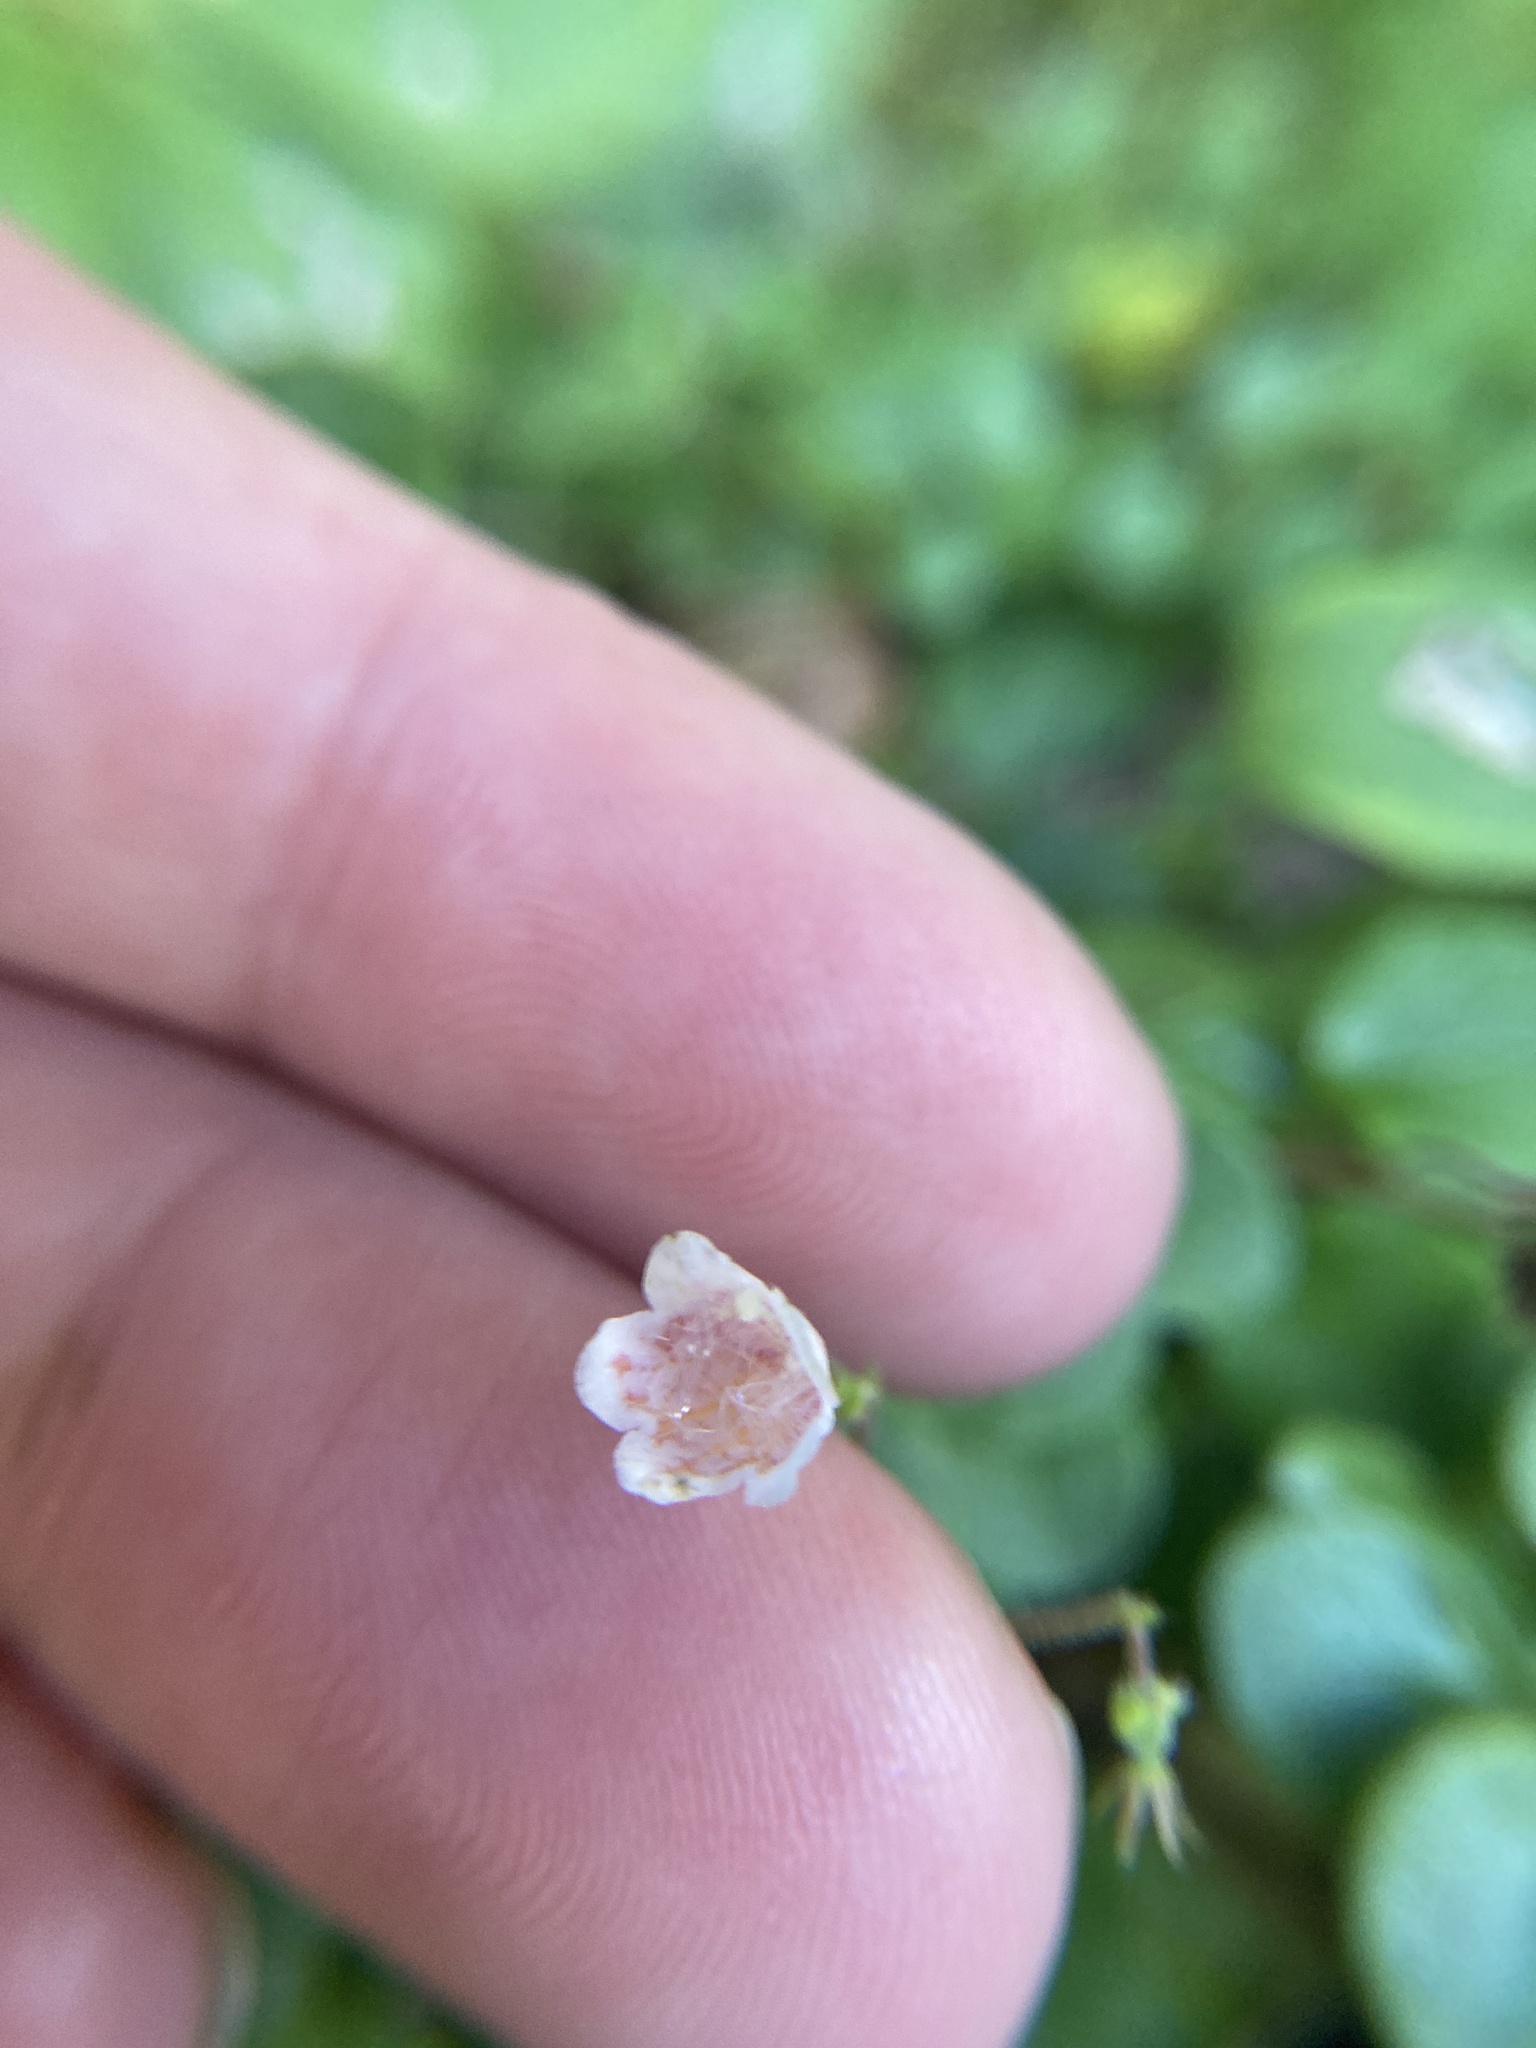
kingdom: Plantae
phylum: Tracheophyta
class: Magnoliopsida
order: Dipsacales
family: Caprifoliaceae
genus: Linnaea
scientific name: Linnaea borealis
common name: Twinflower
